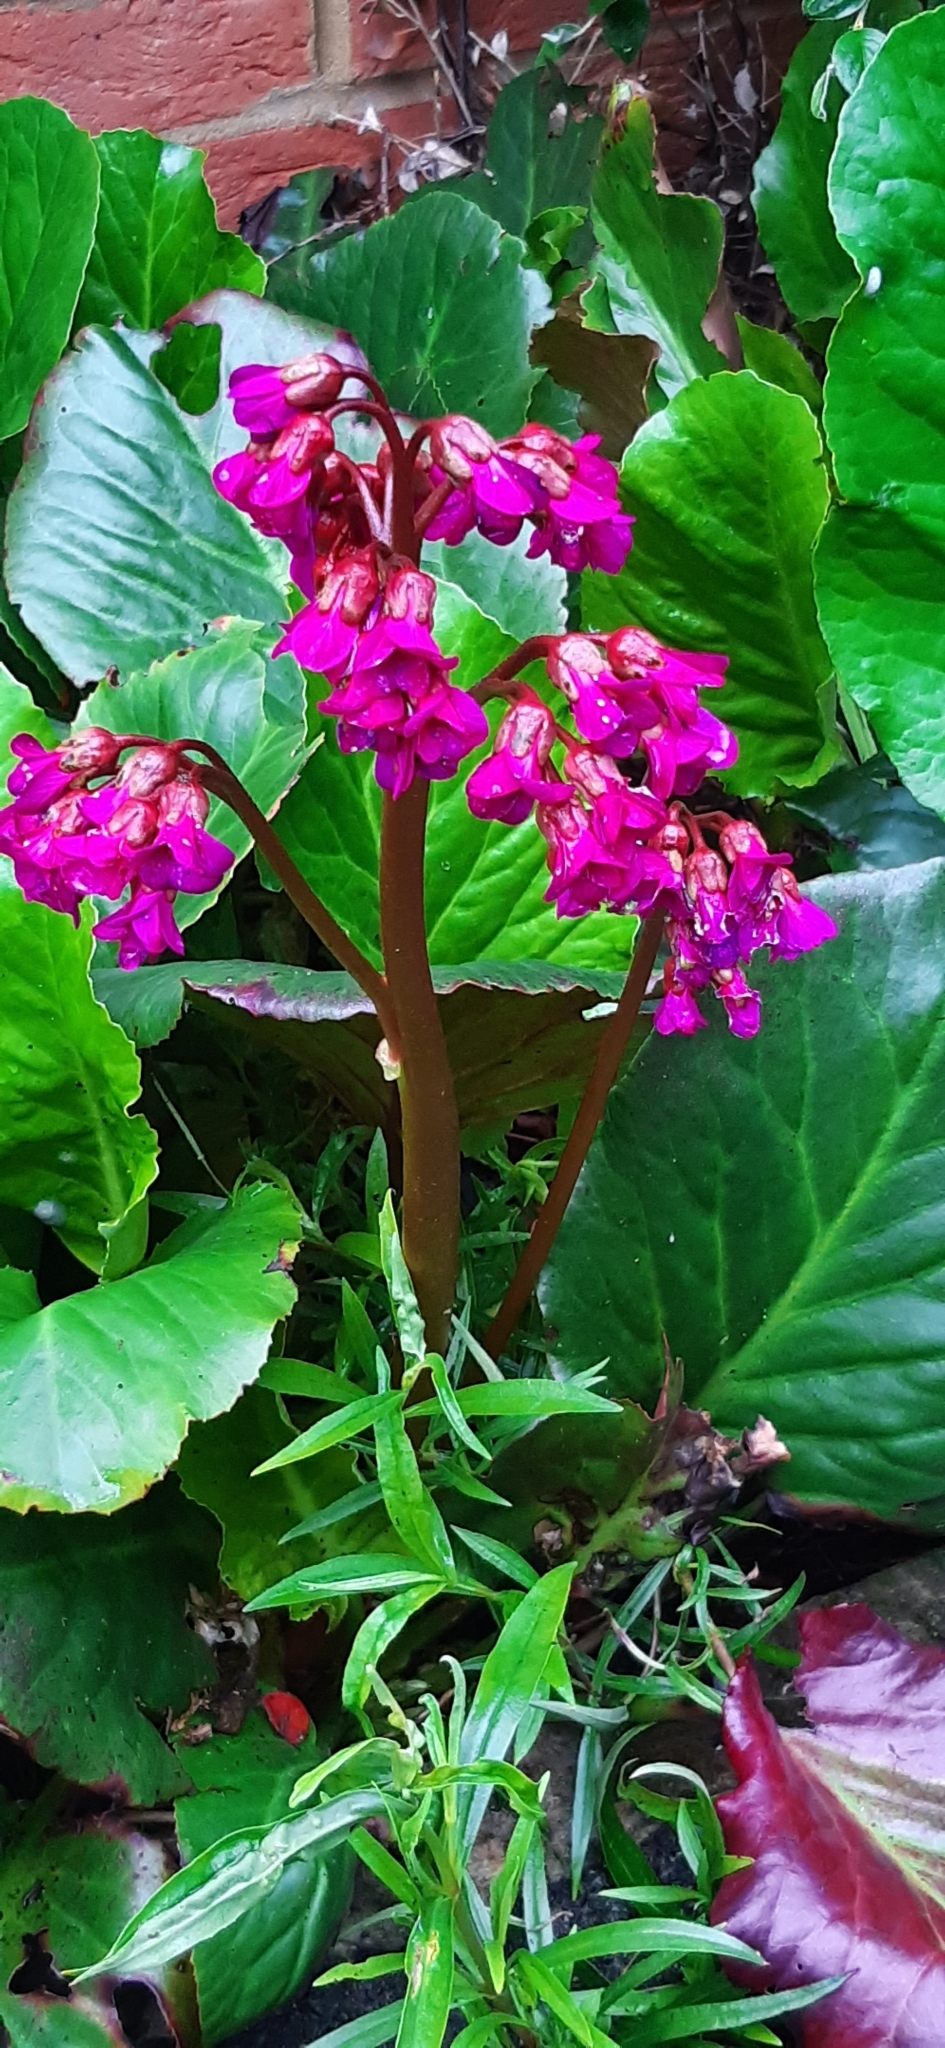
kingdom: Plantae
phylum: Tracheophyta
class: Magnoliopsida
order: Saxifragales
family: Saxifragaceae
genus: Bergenia
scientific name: Bergenia crassifolia
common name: Elephant-ears
